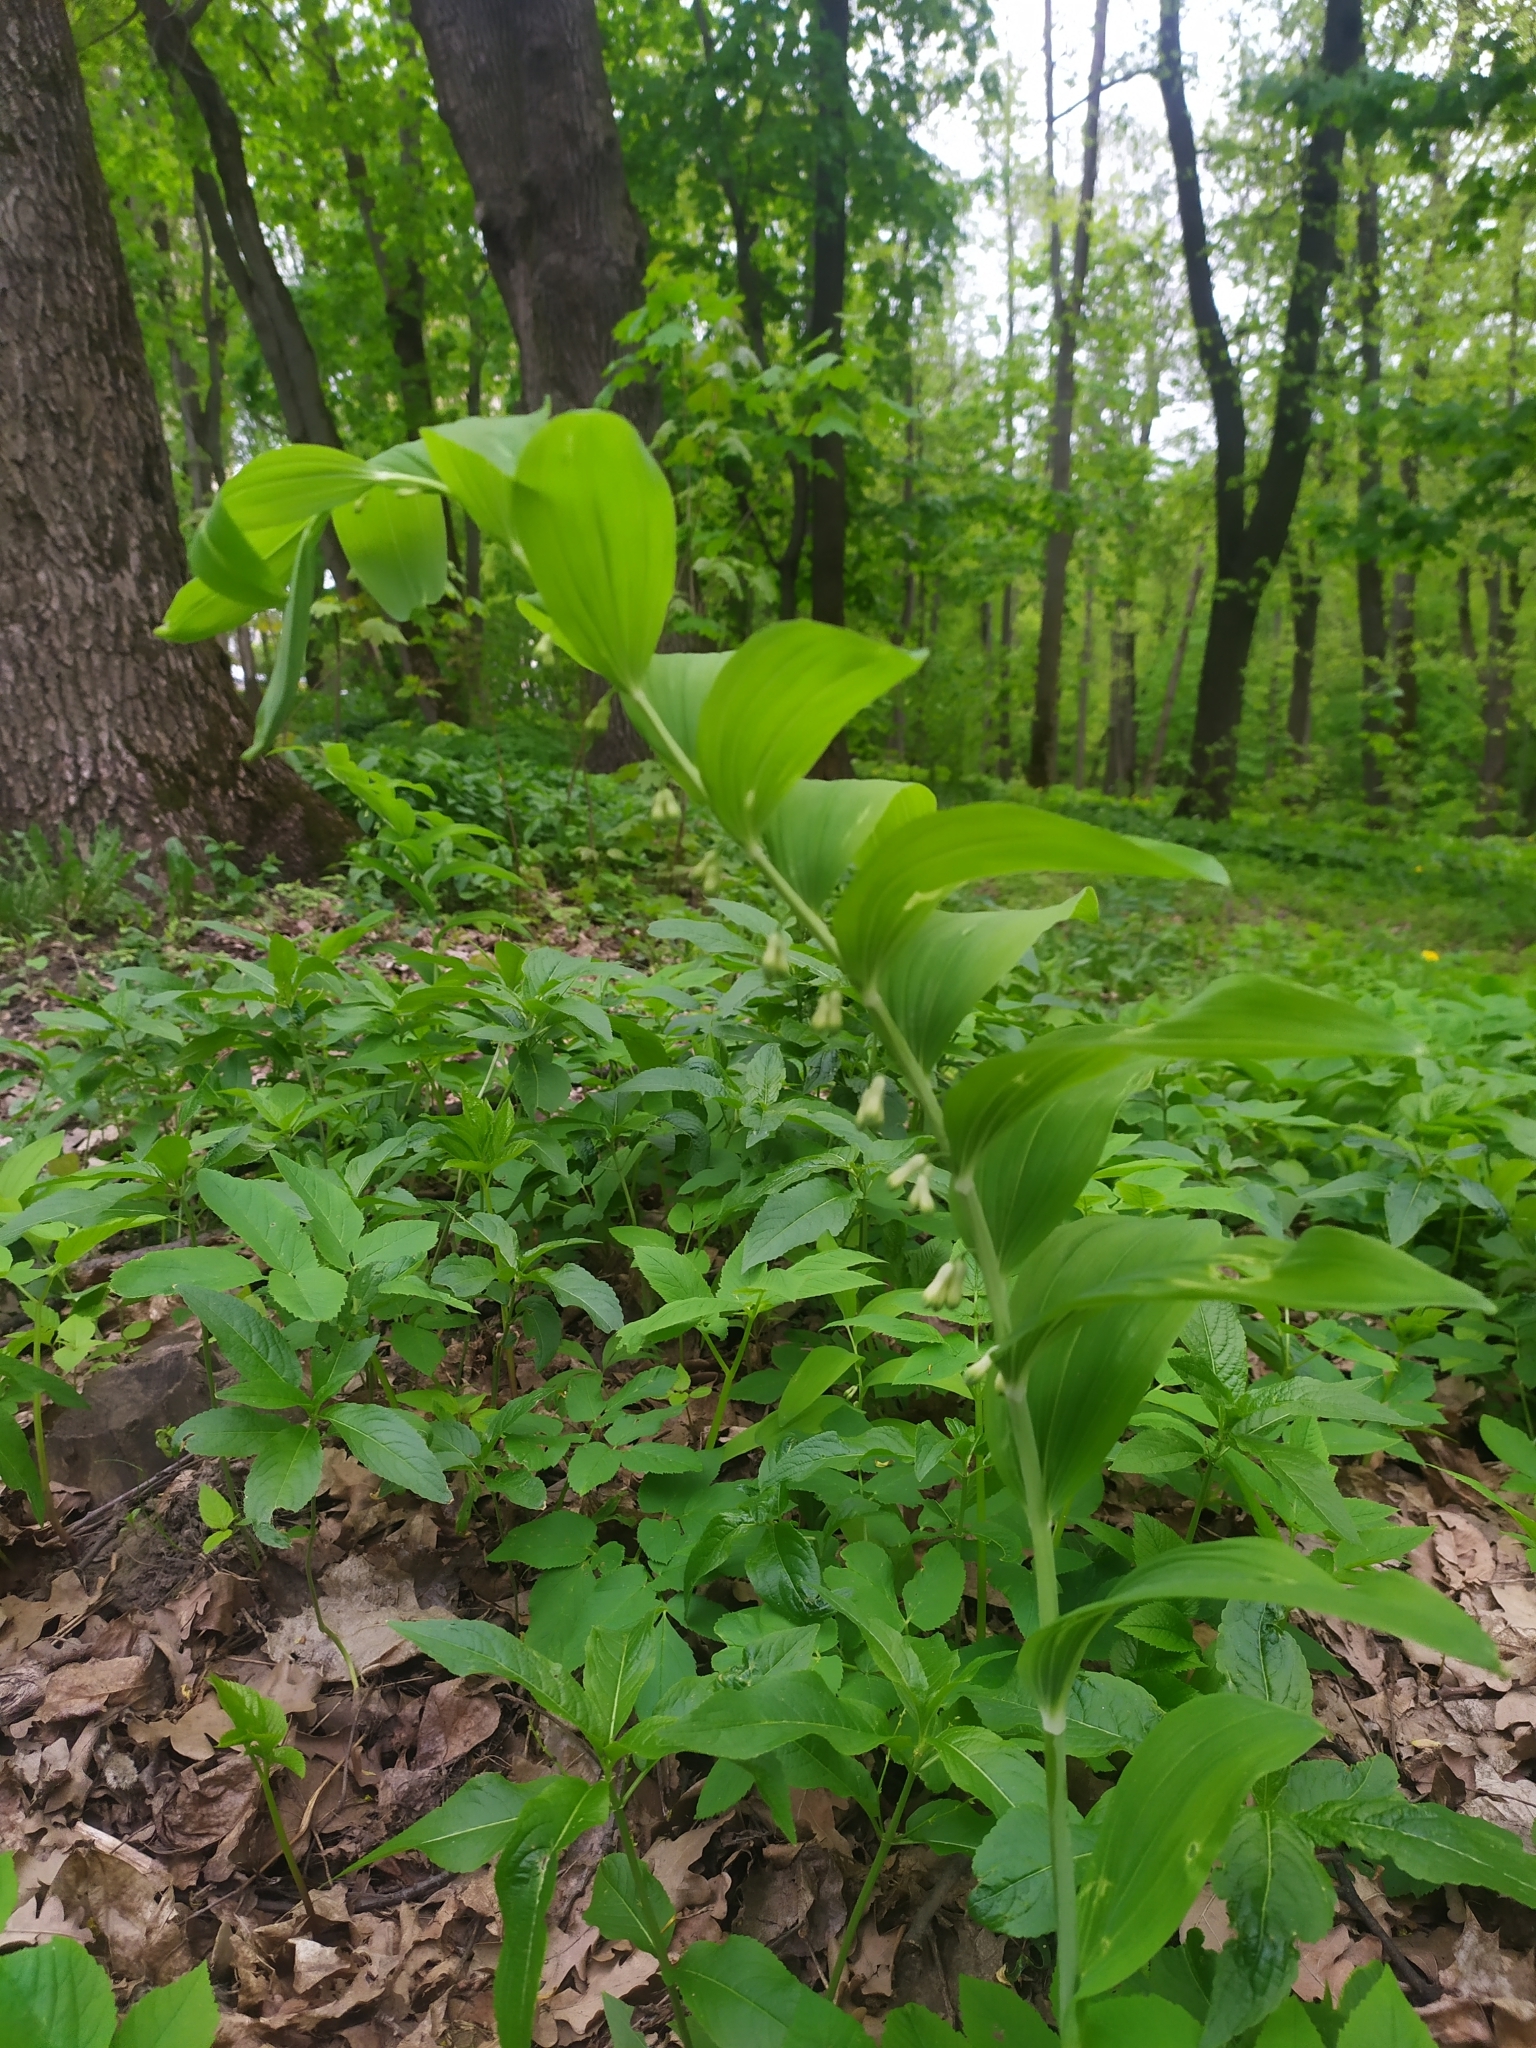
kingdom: Plantae
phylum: Tracheophyta
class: Liliopsida
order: Asparagales
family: Asparagaceae
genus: Polygonatum
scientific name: Polygonatum multiflorum
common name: Solomon's-seal
